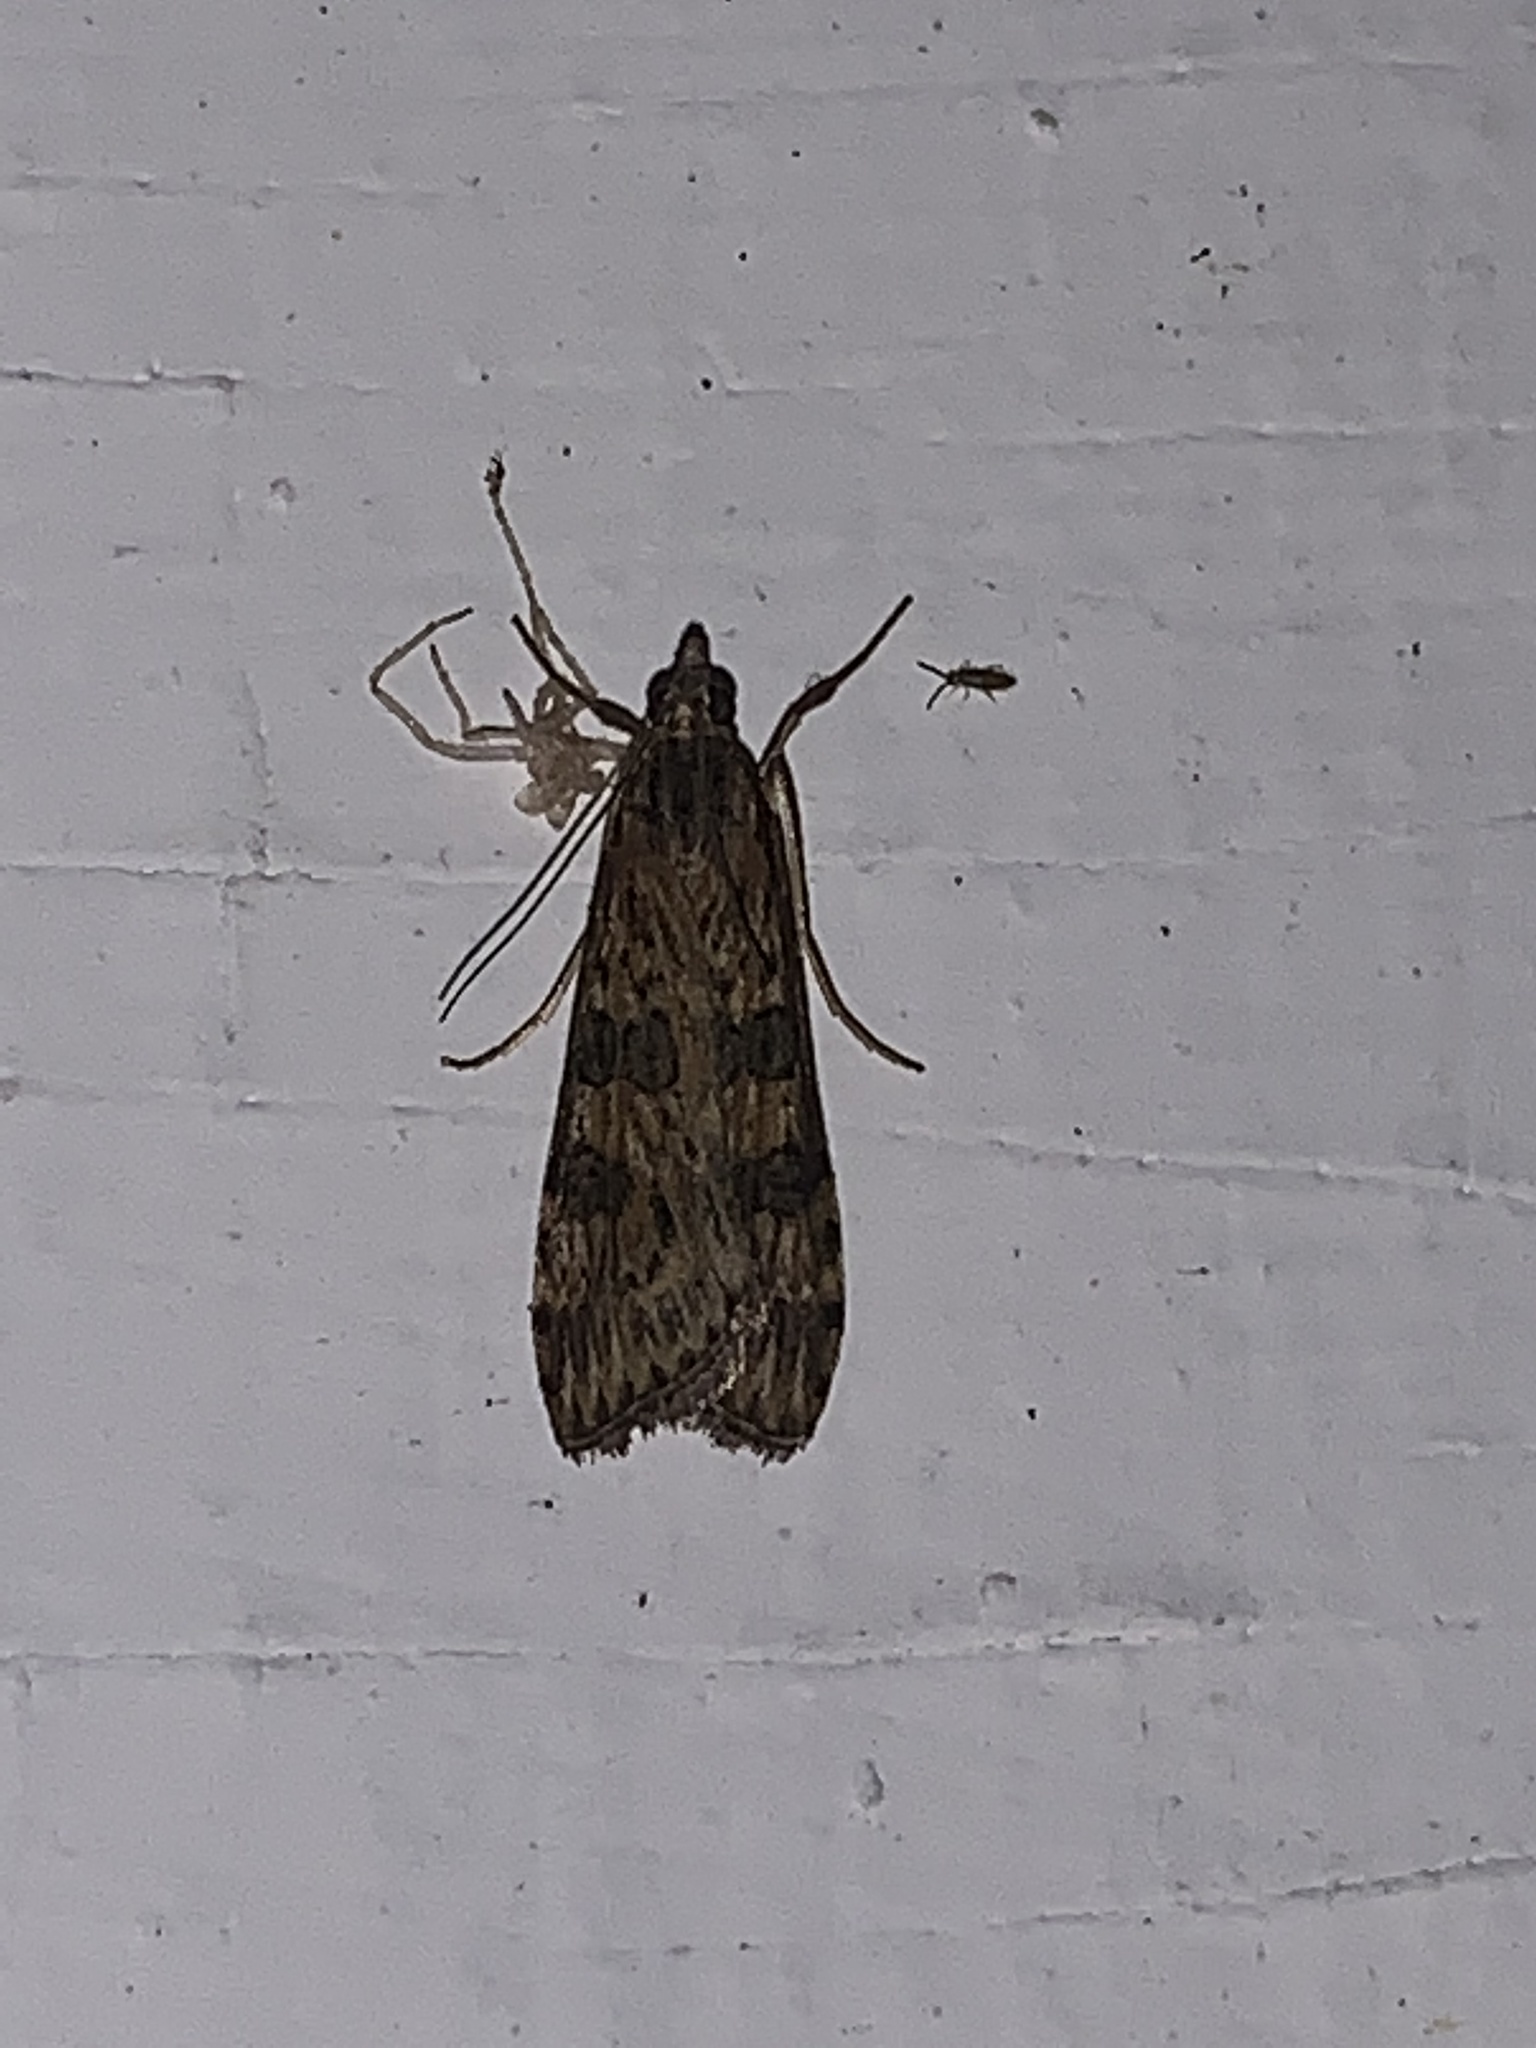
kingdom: Animalia
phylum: Arthropoda
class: Insecta
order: Lepidoptera
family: Crambidae
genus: Nomophila
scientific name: Nomophila nearctica
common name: American rush veneer
